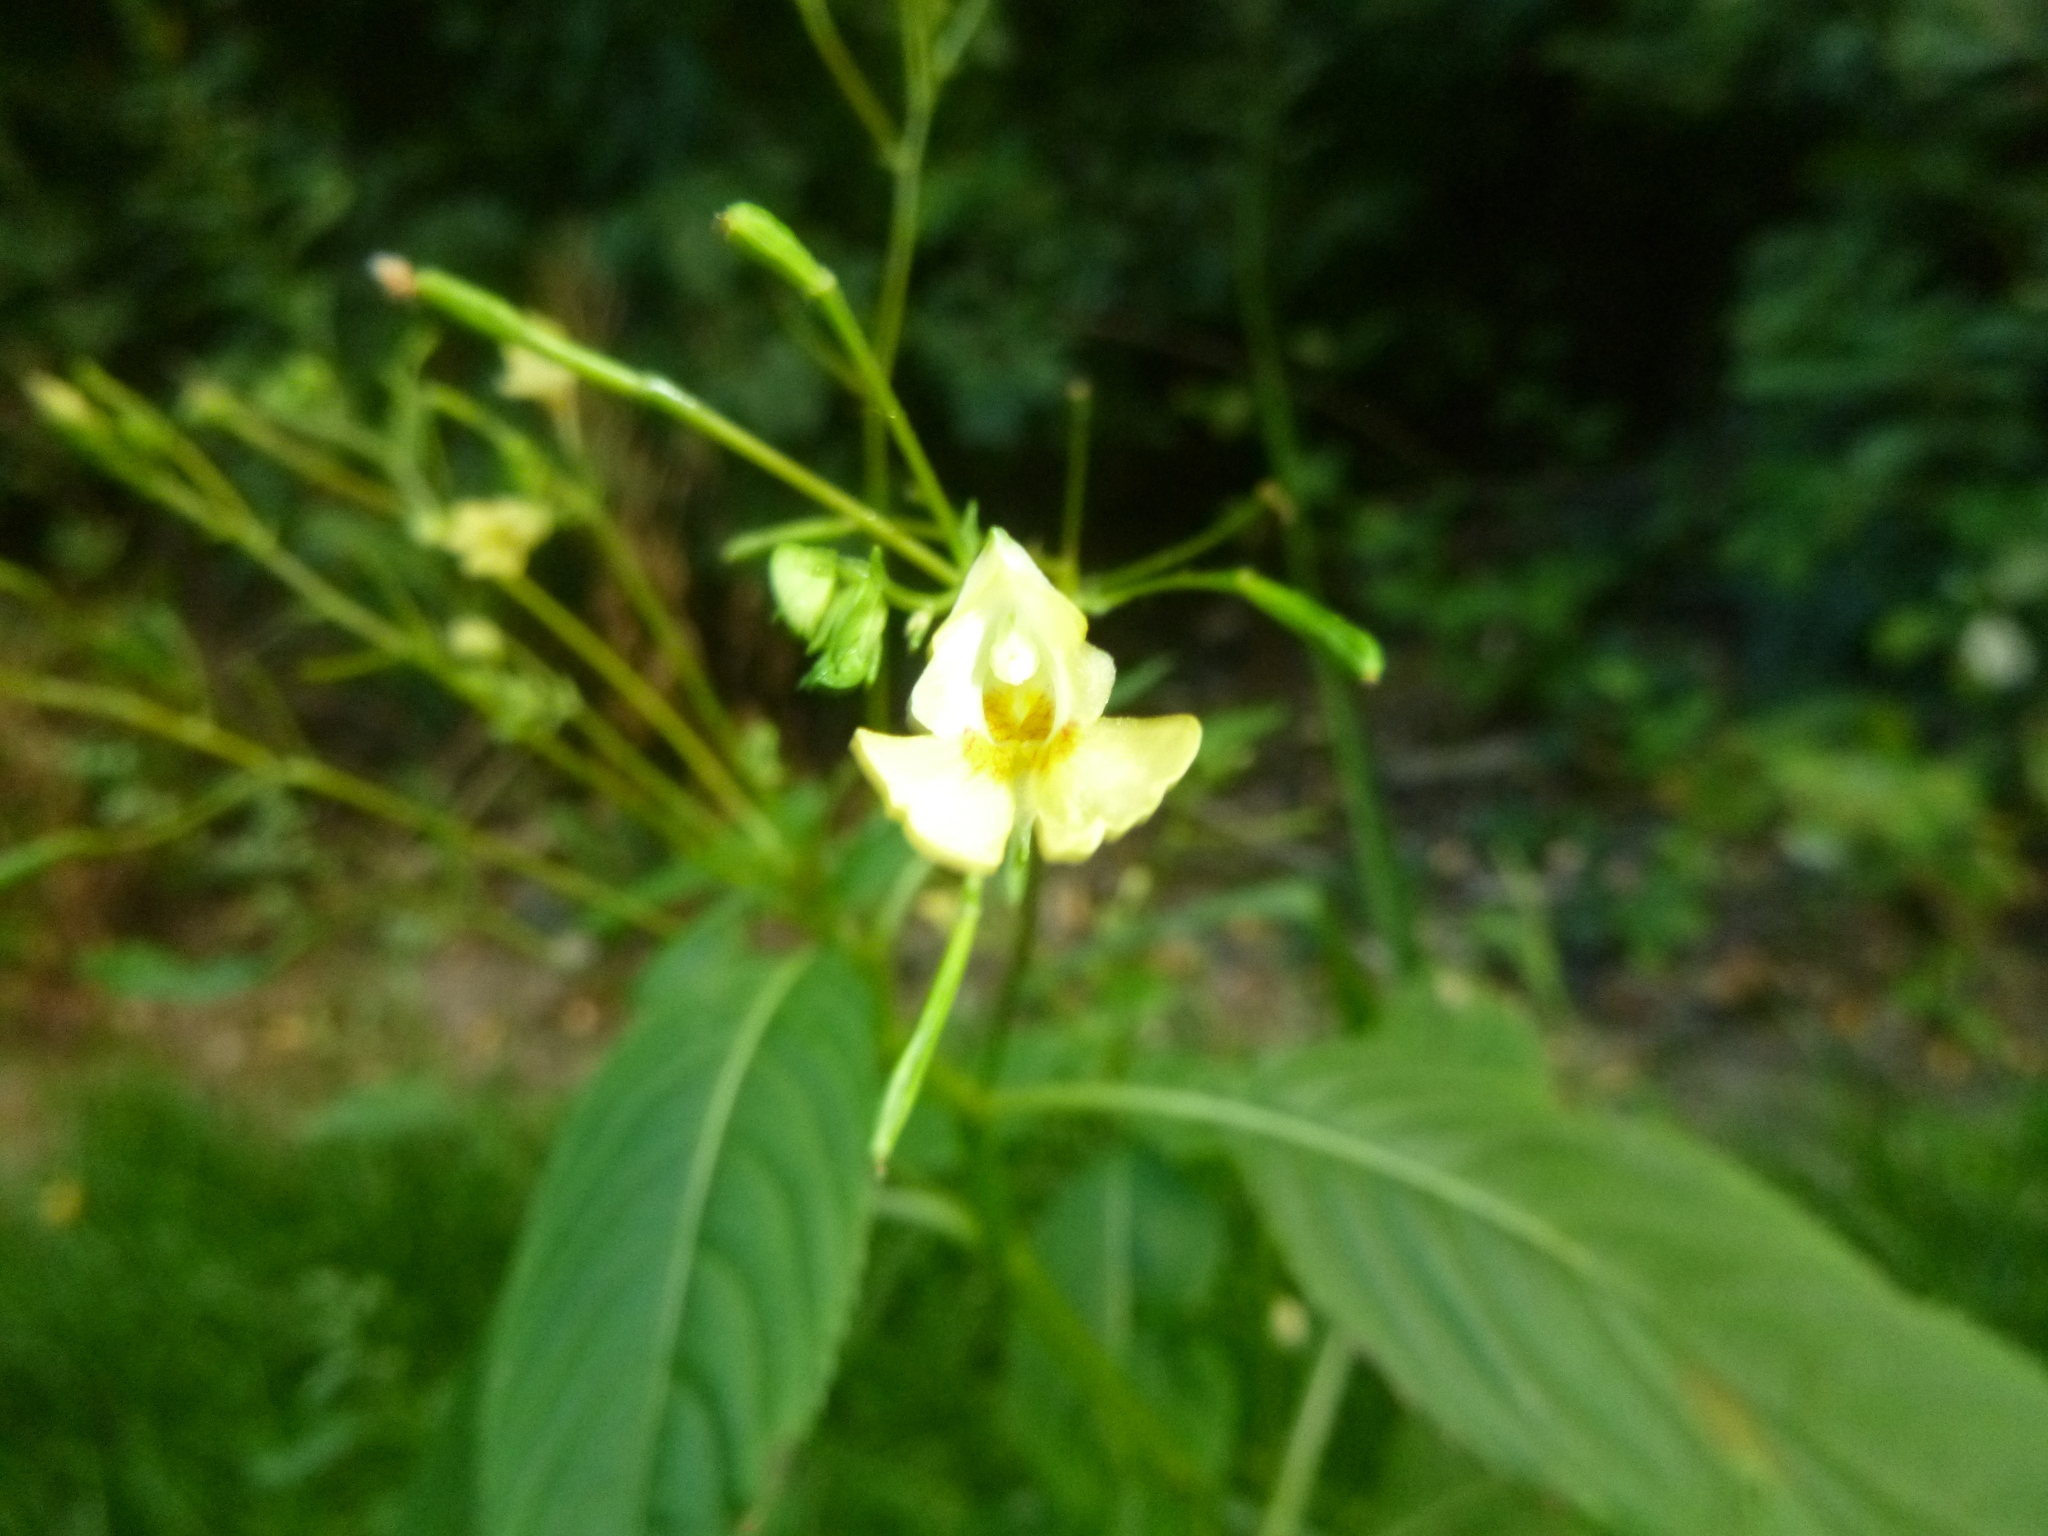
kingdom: Plantae
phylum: Tracheophyta
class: Magnoliopsida
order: Ericales
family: Balsaminaceae
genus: Impatiens
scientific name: Impatiens parviflora
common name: Small balsam
